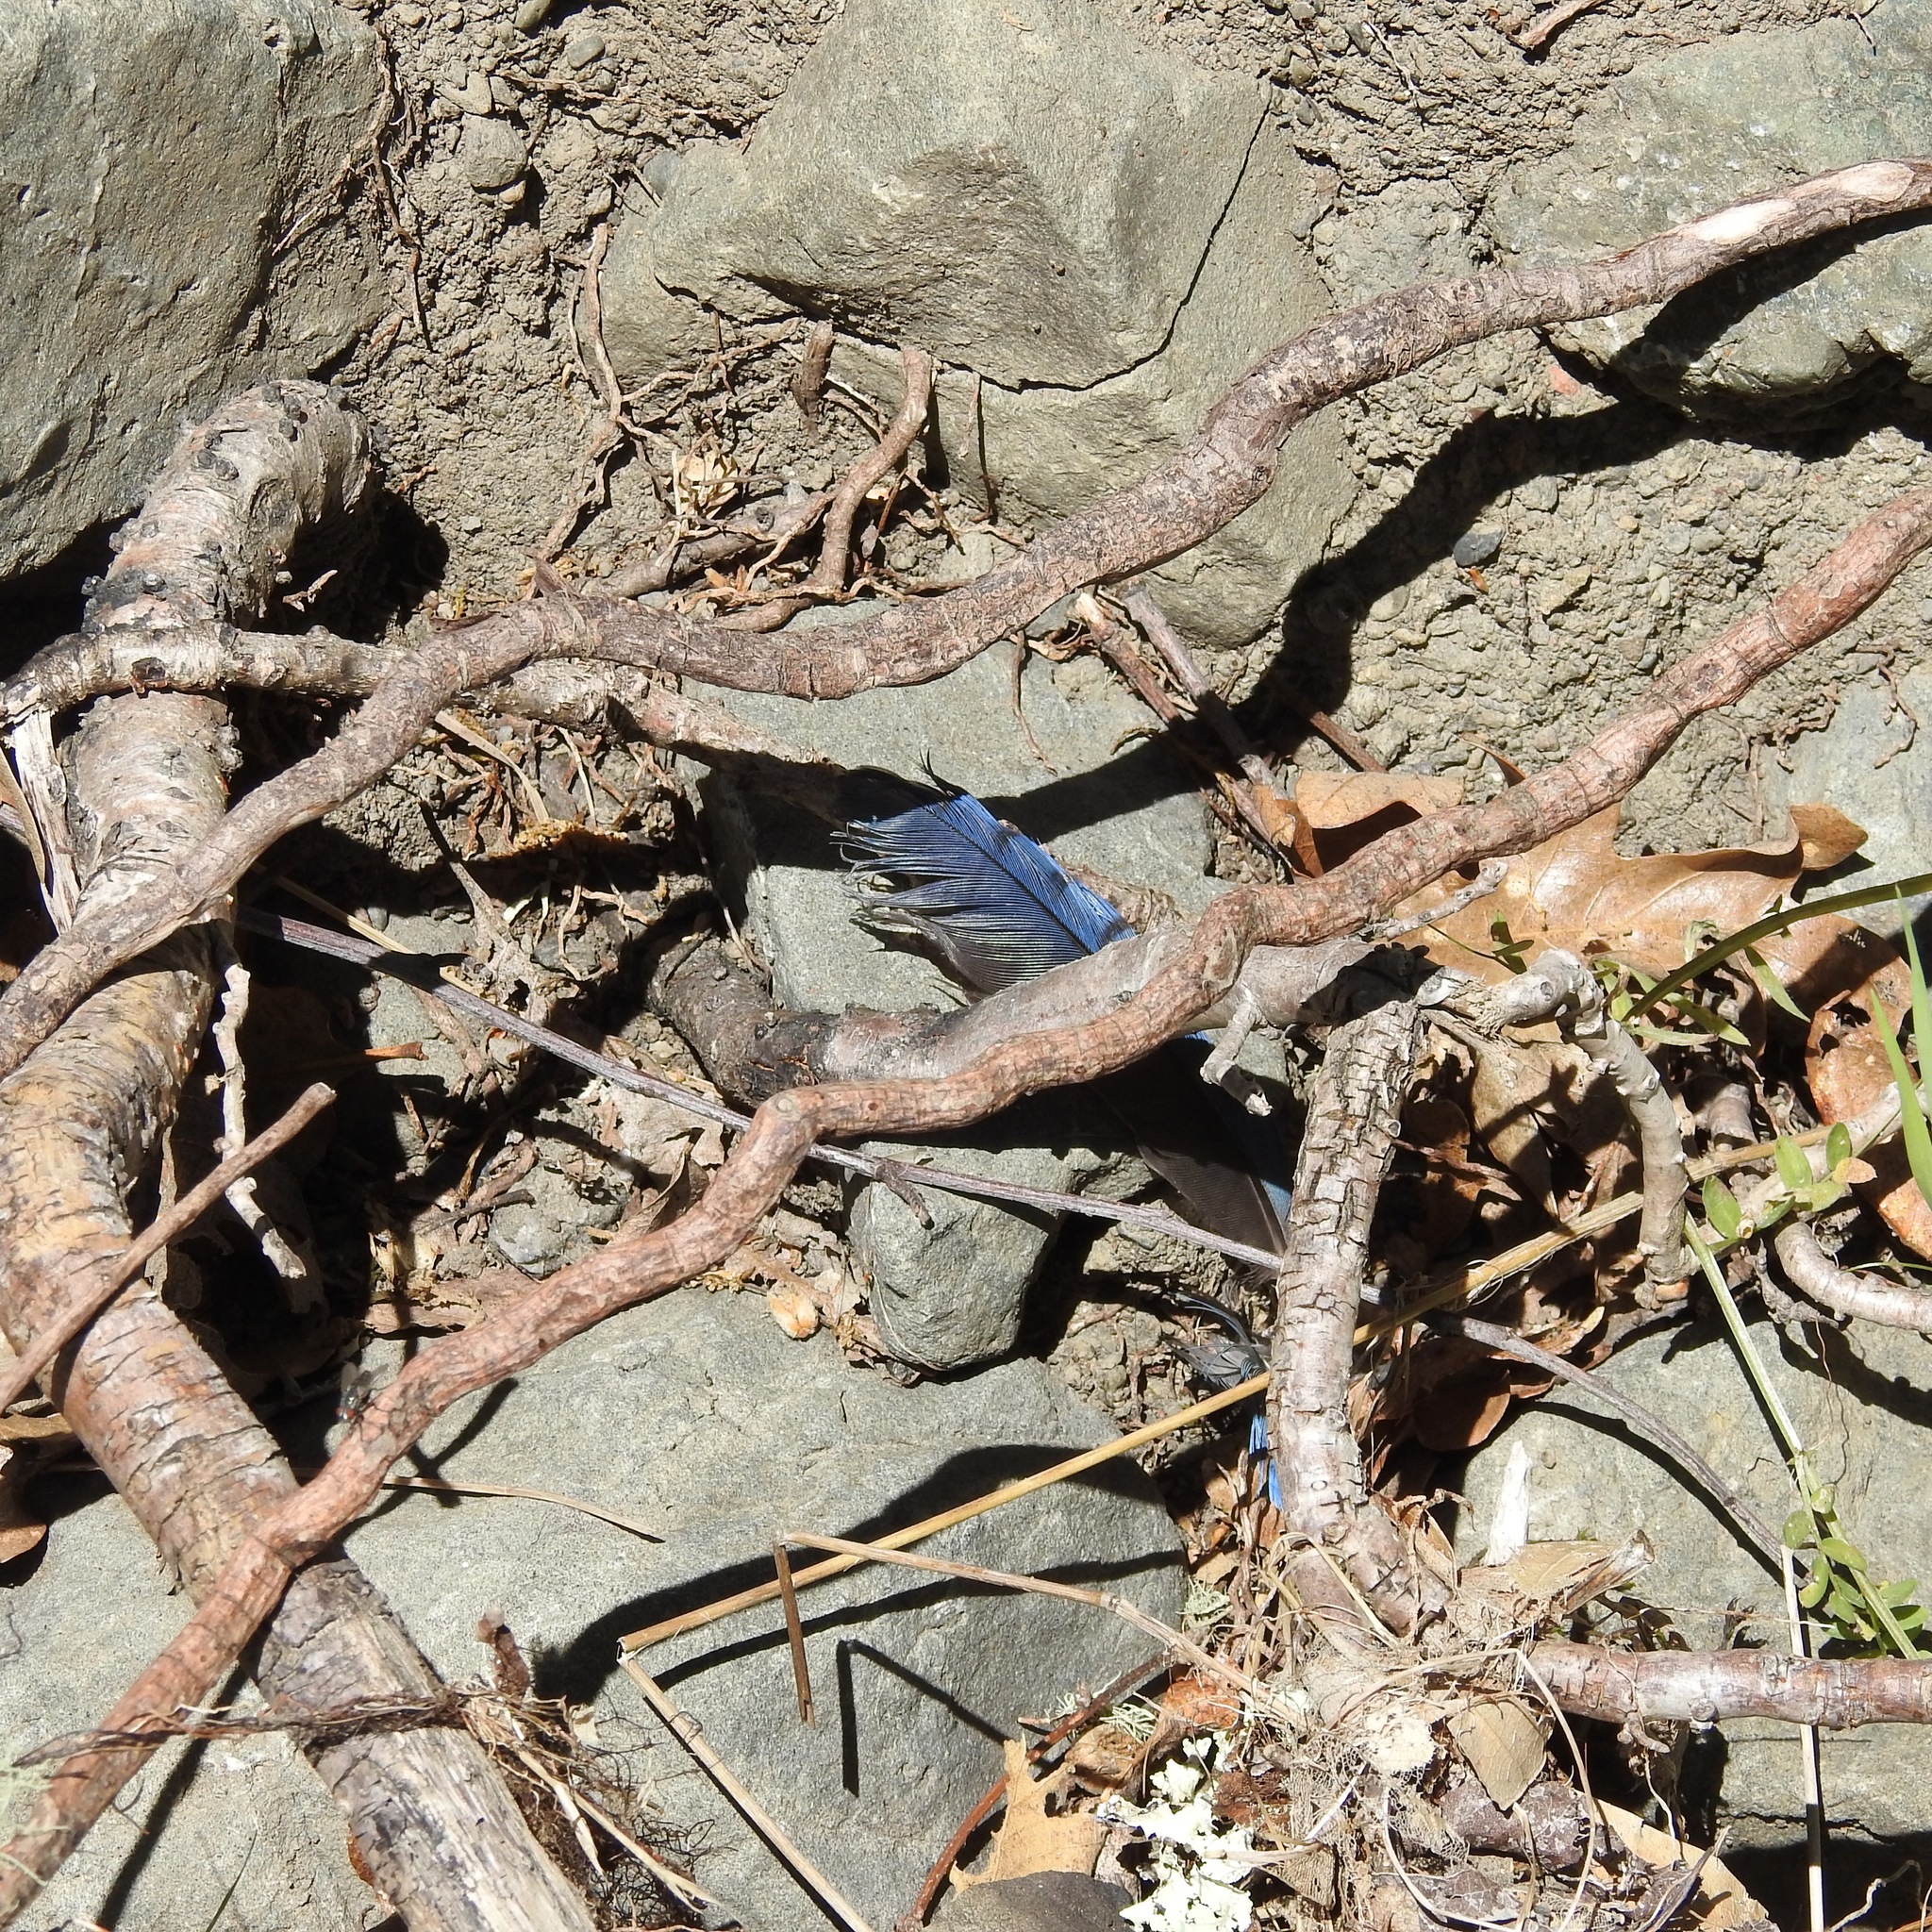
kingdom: Animalia
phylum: Chordata
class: Aves
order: Passeriformes
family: Corvidae
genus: Cyanocitta
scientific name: Cyanocitta stelleri
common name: Steller's jay
